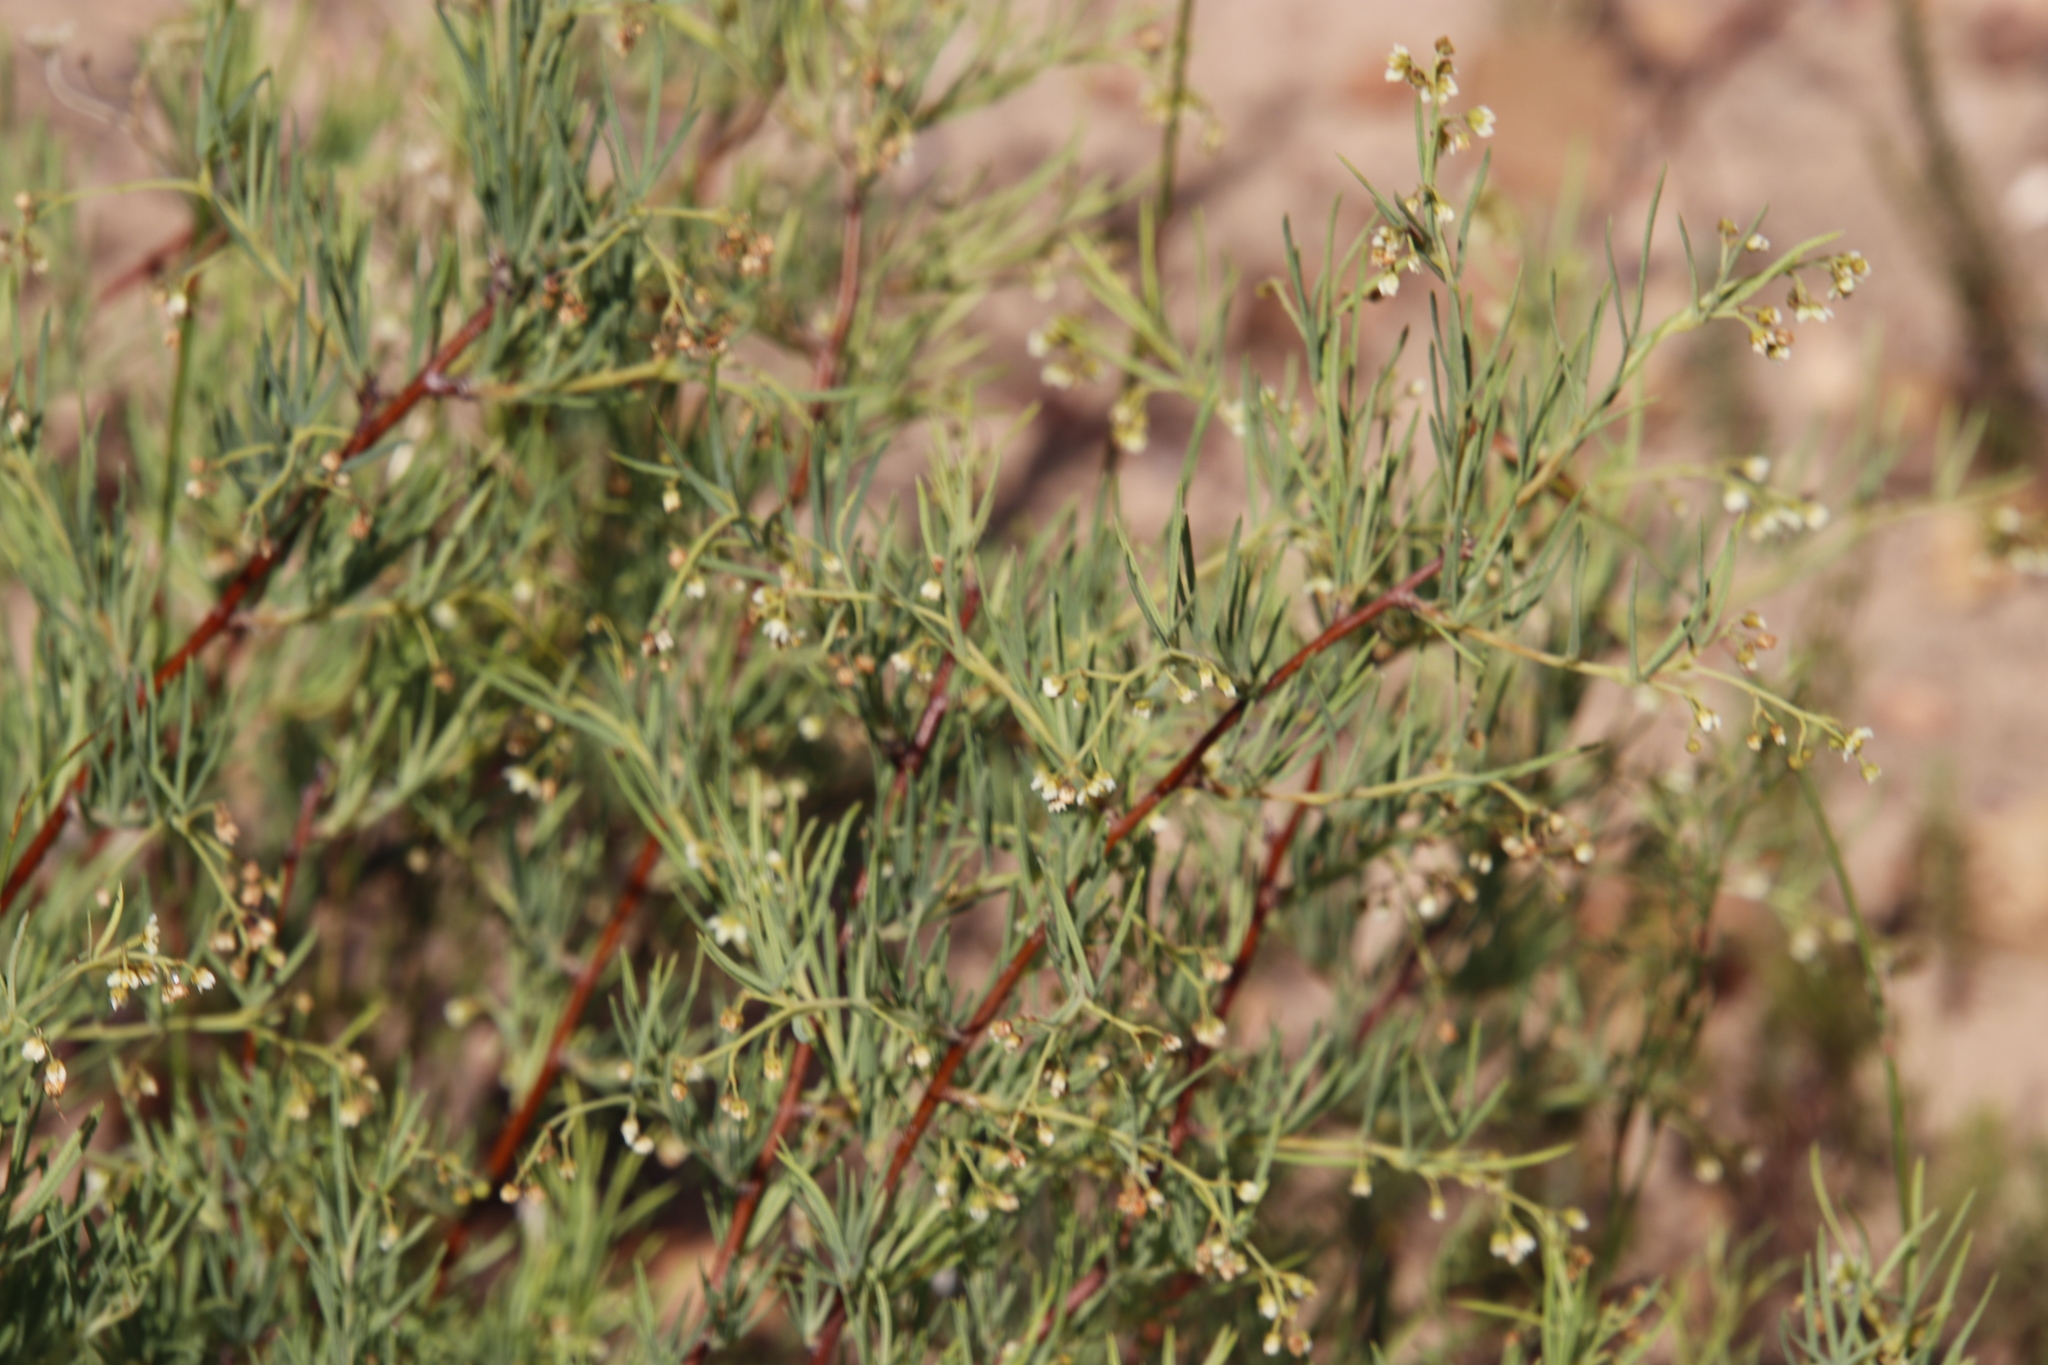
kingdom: Plantae
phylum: Tracheophyta
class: Magnoliopsida
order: Sapindales
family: Anacardiaceae
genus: Searsia
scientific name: Searsia rosmarinifolia
